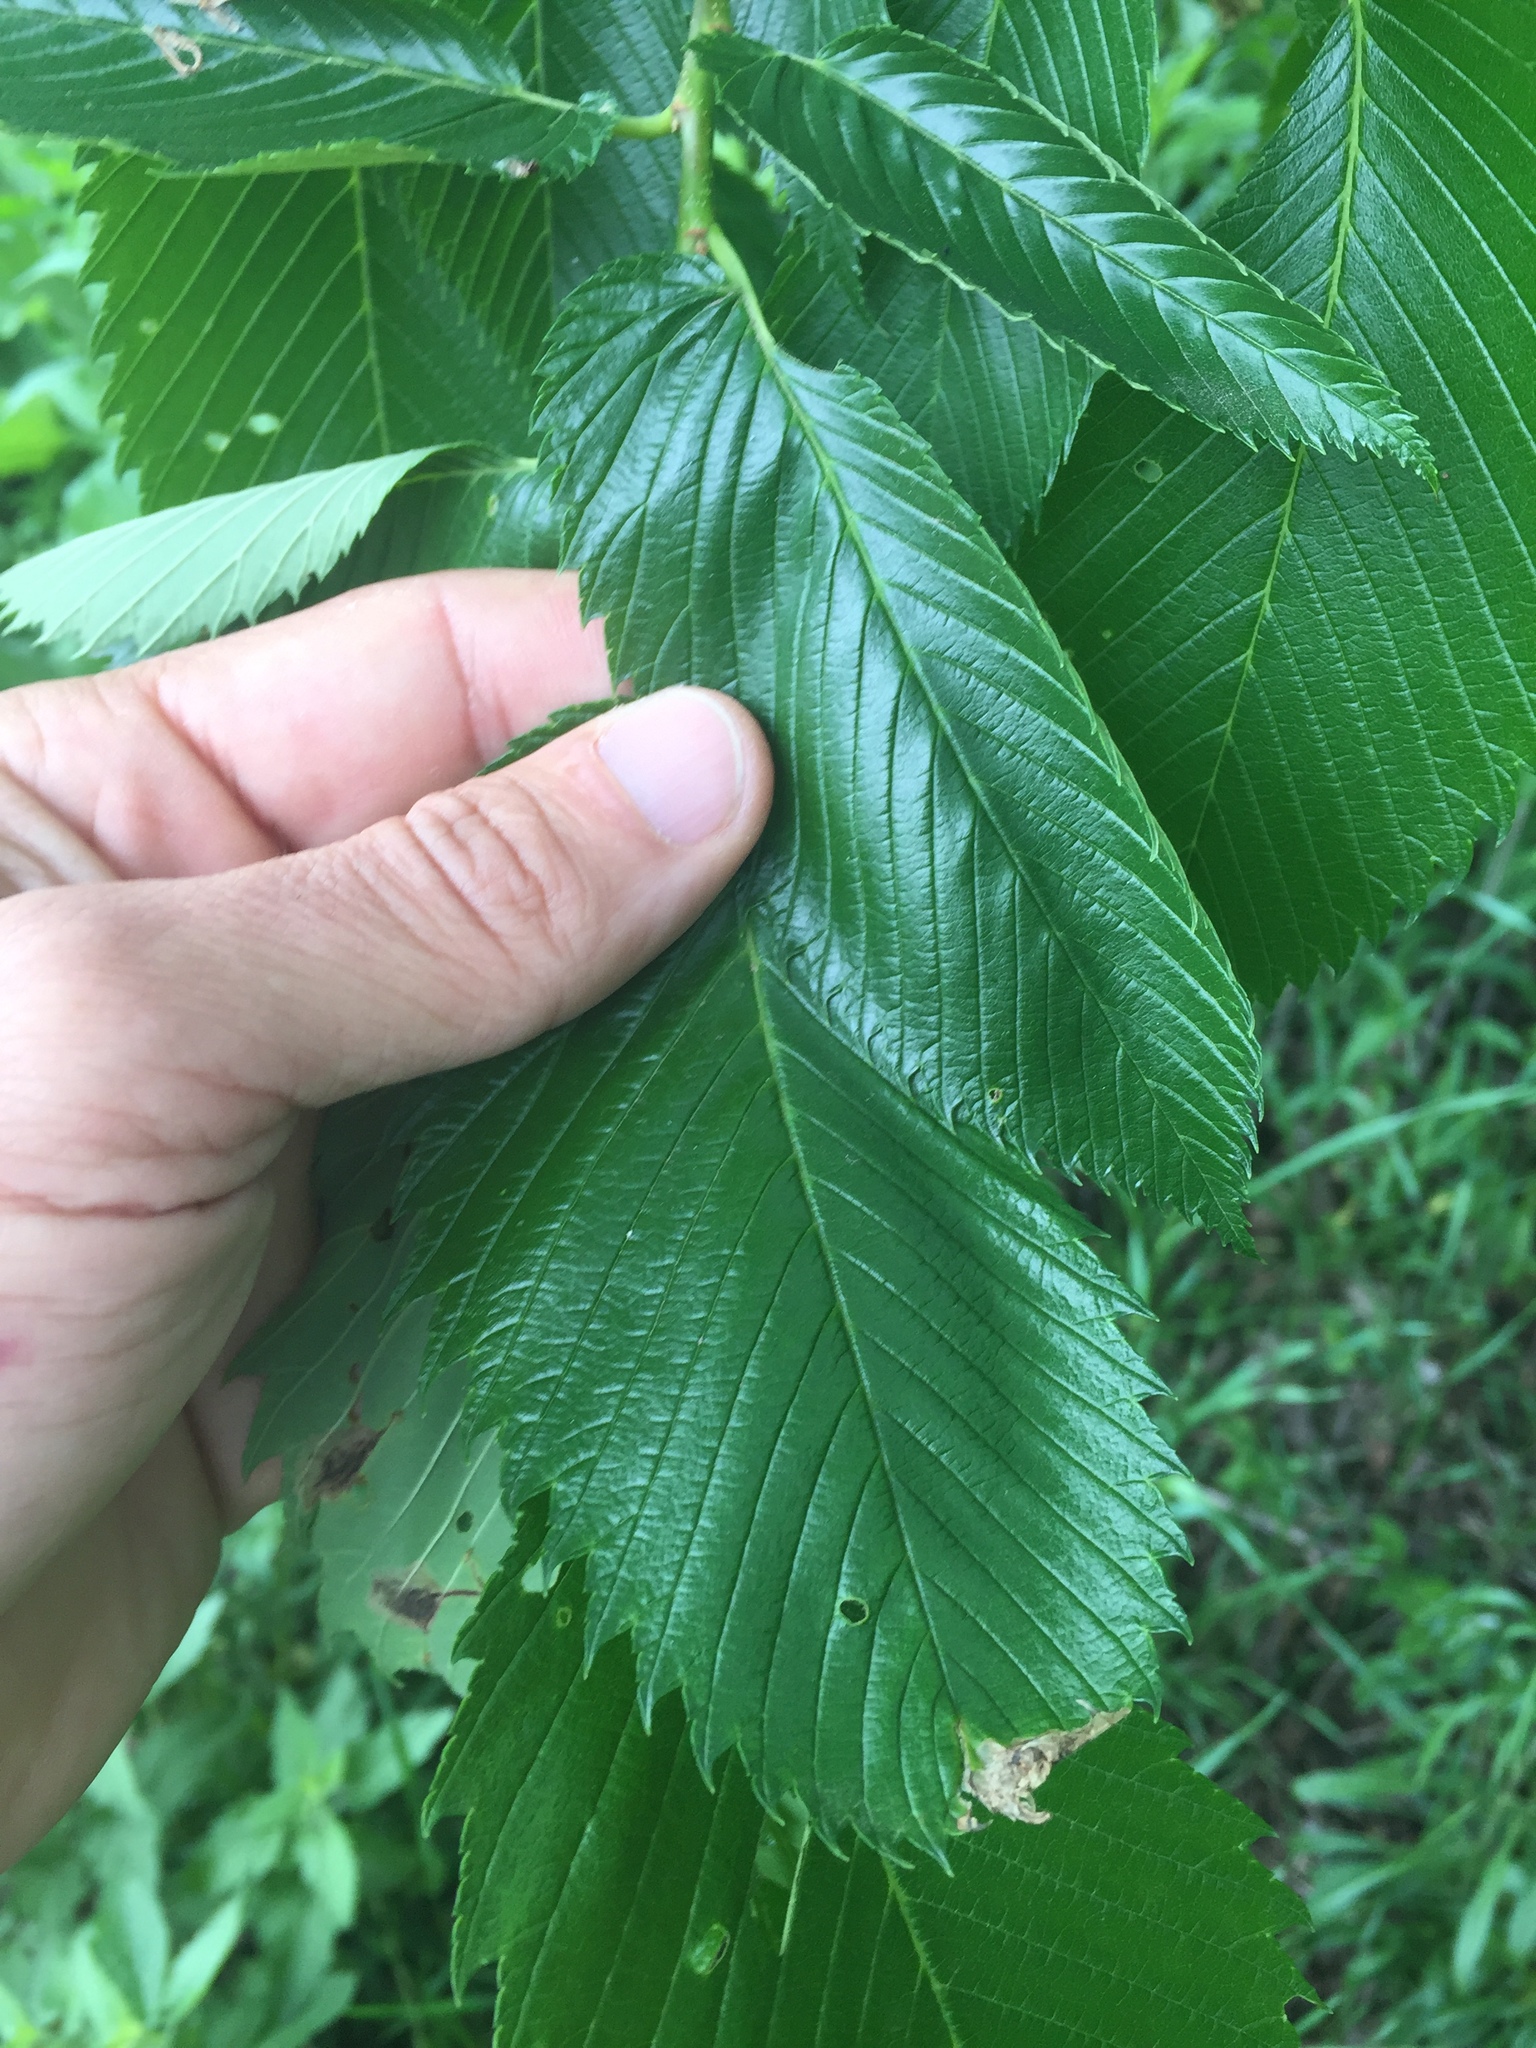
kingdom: Plantae
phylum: Tracheophyta
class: Magnoliopsida
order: Rosales
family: Ulmaceae
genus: Ulmus
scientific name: Ulmus americana
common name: American elm
